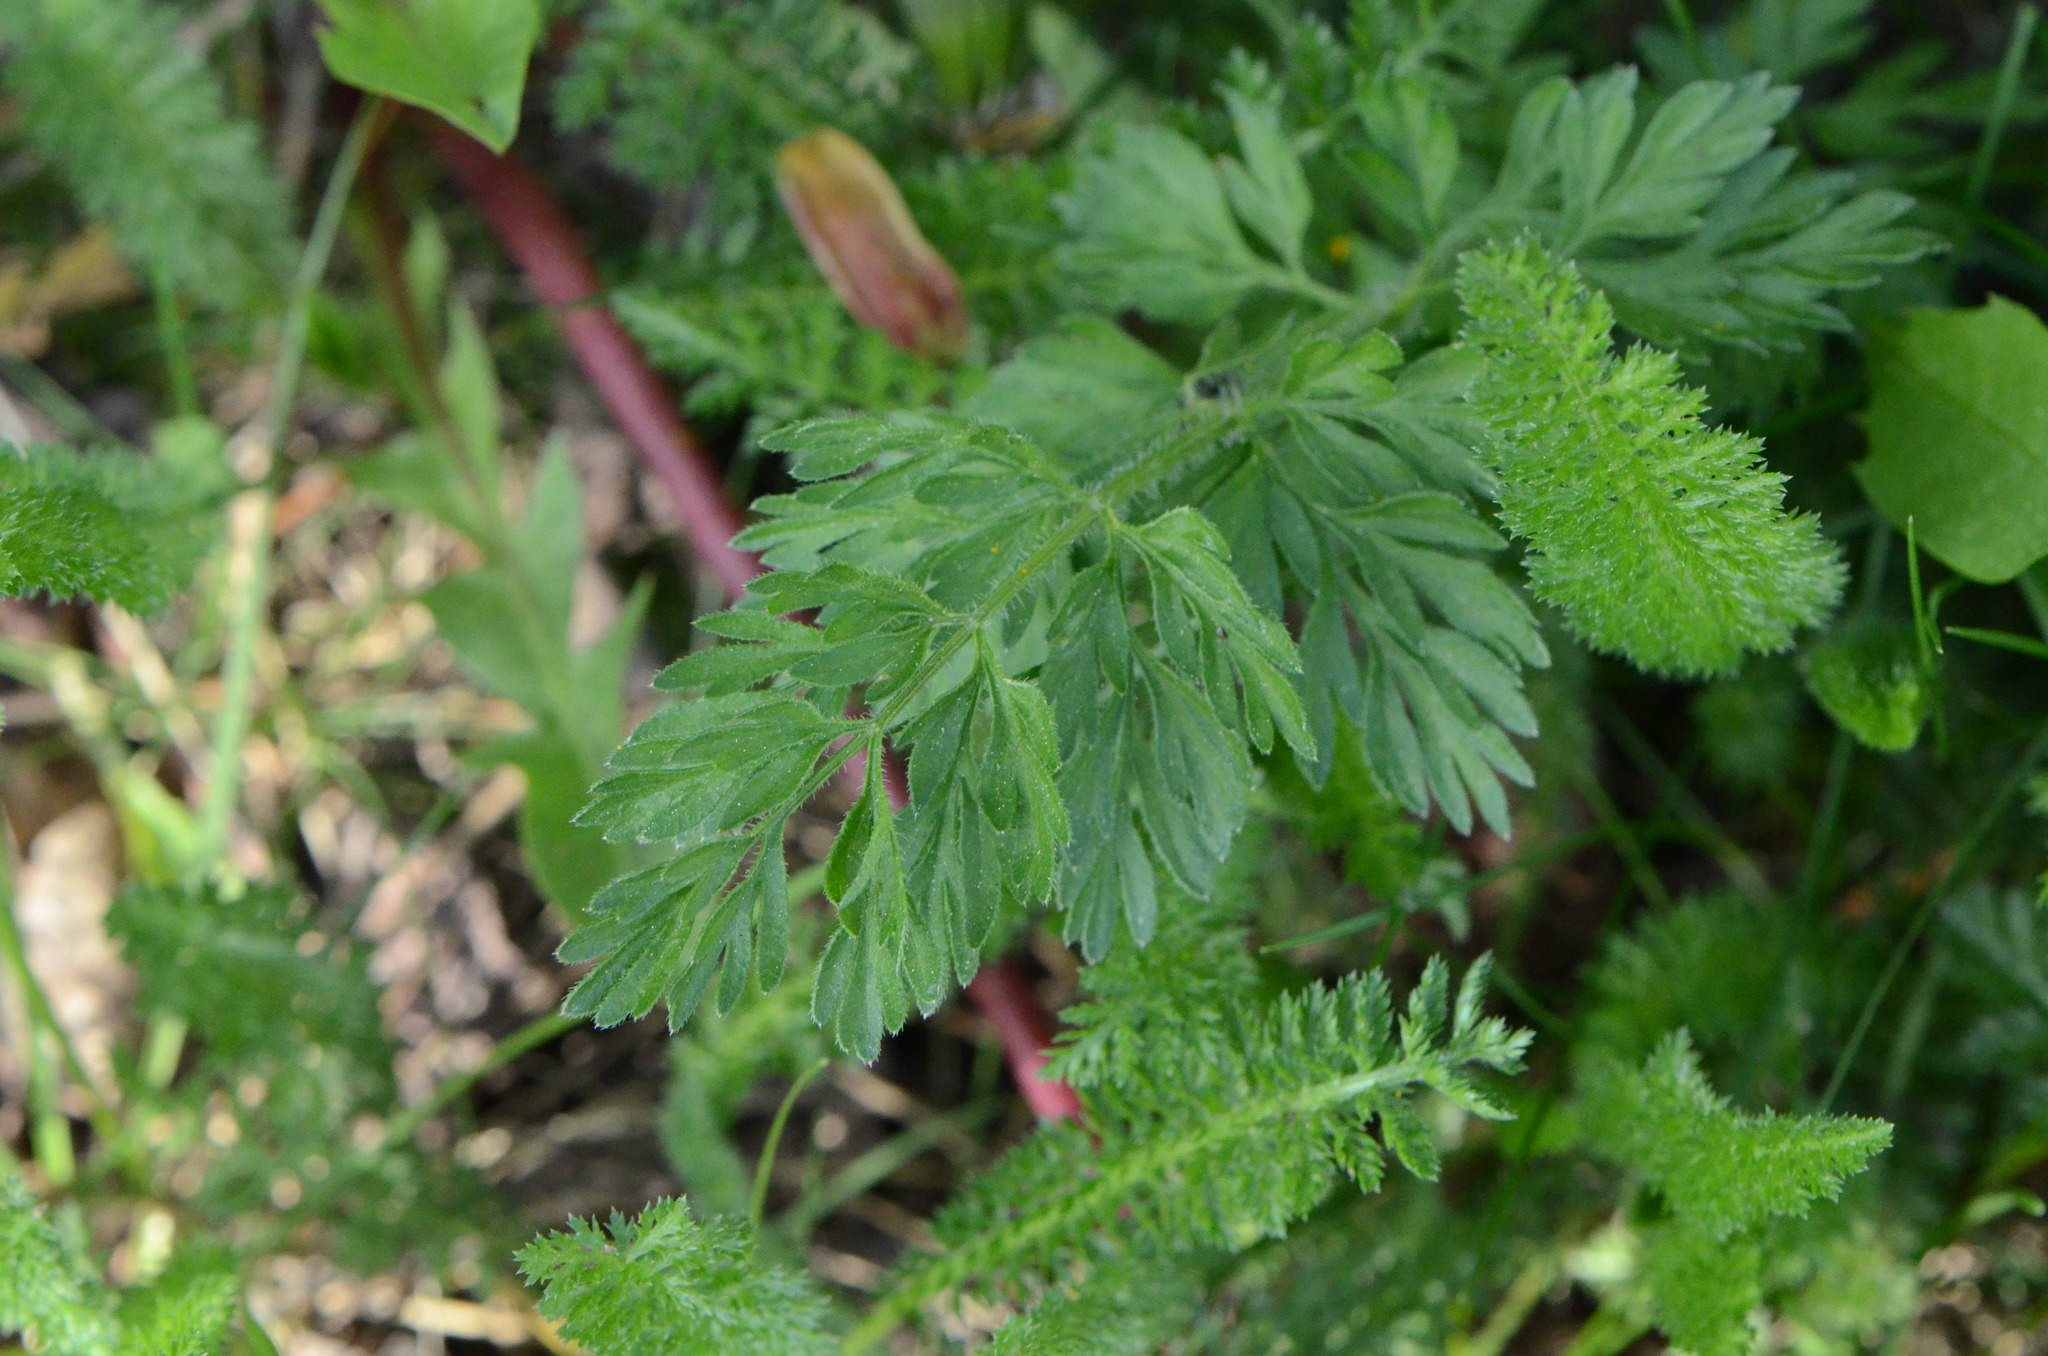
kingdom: Plantae
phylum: Tracheophyta
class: Magnoliopsida
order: Apiales
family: Apiaceae
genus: Daucus
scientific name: Daucus carota
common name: Wild carrot
